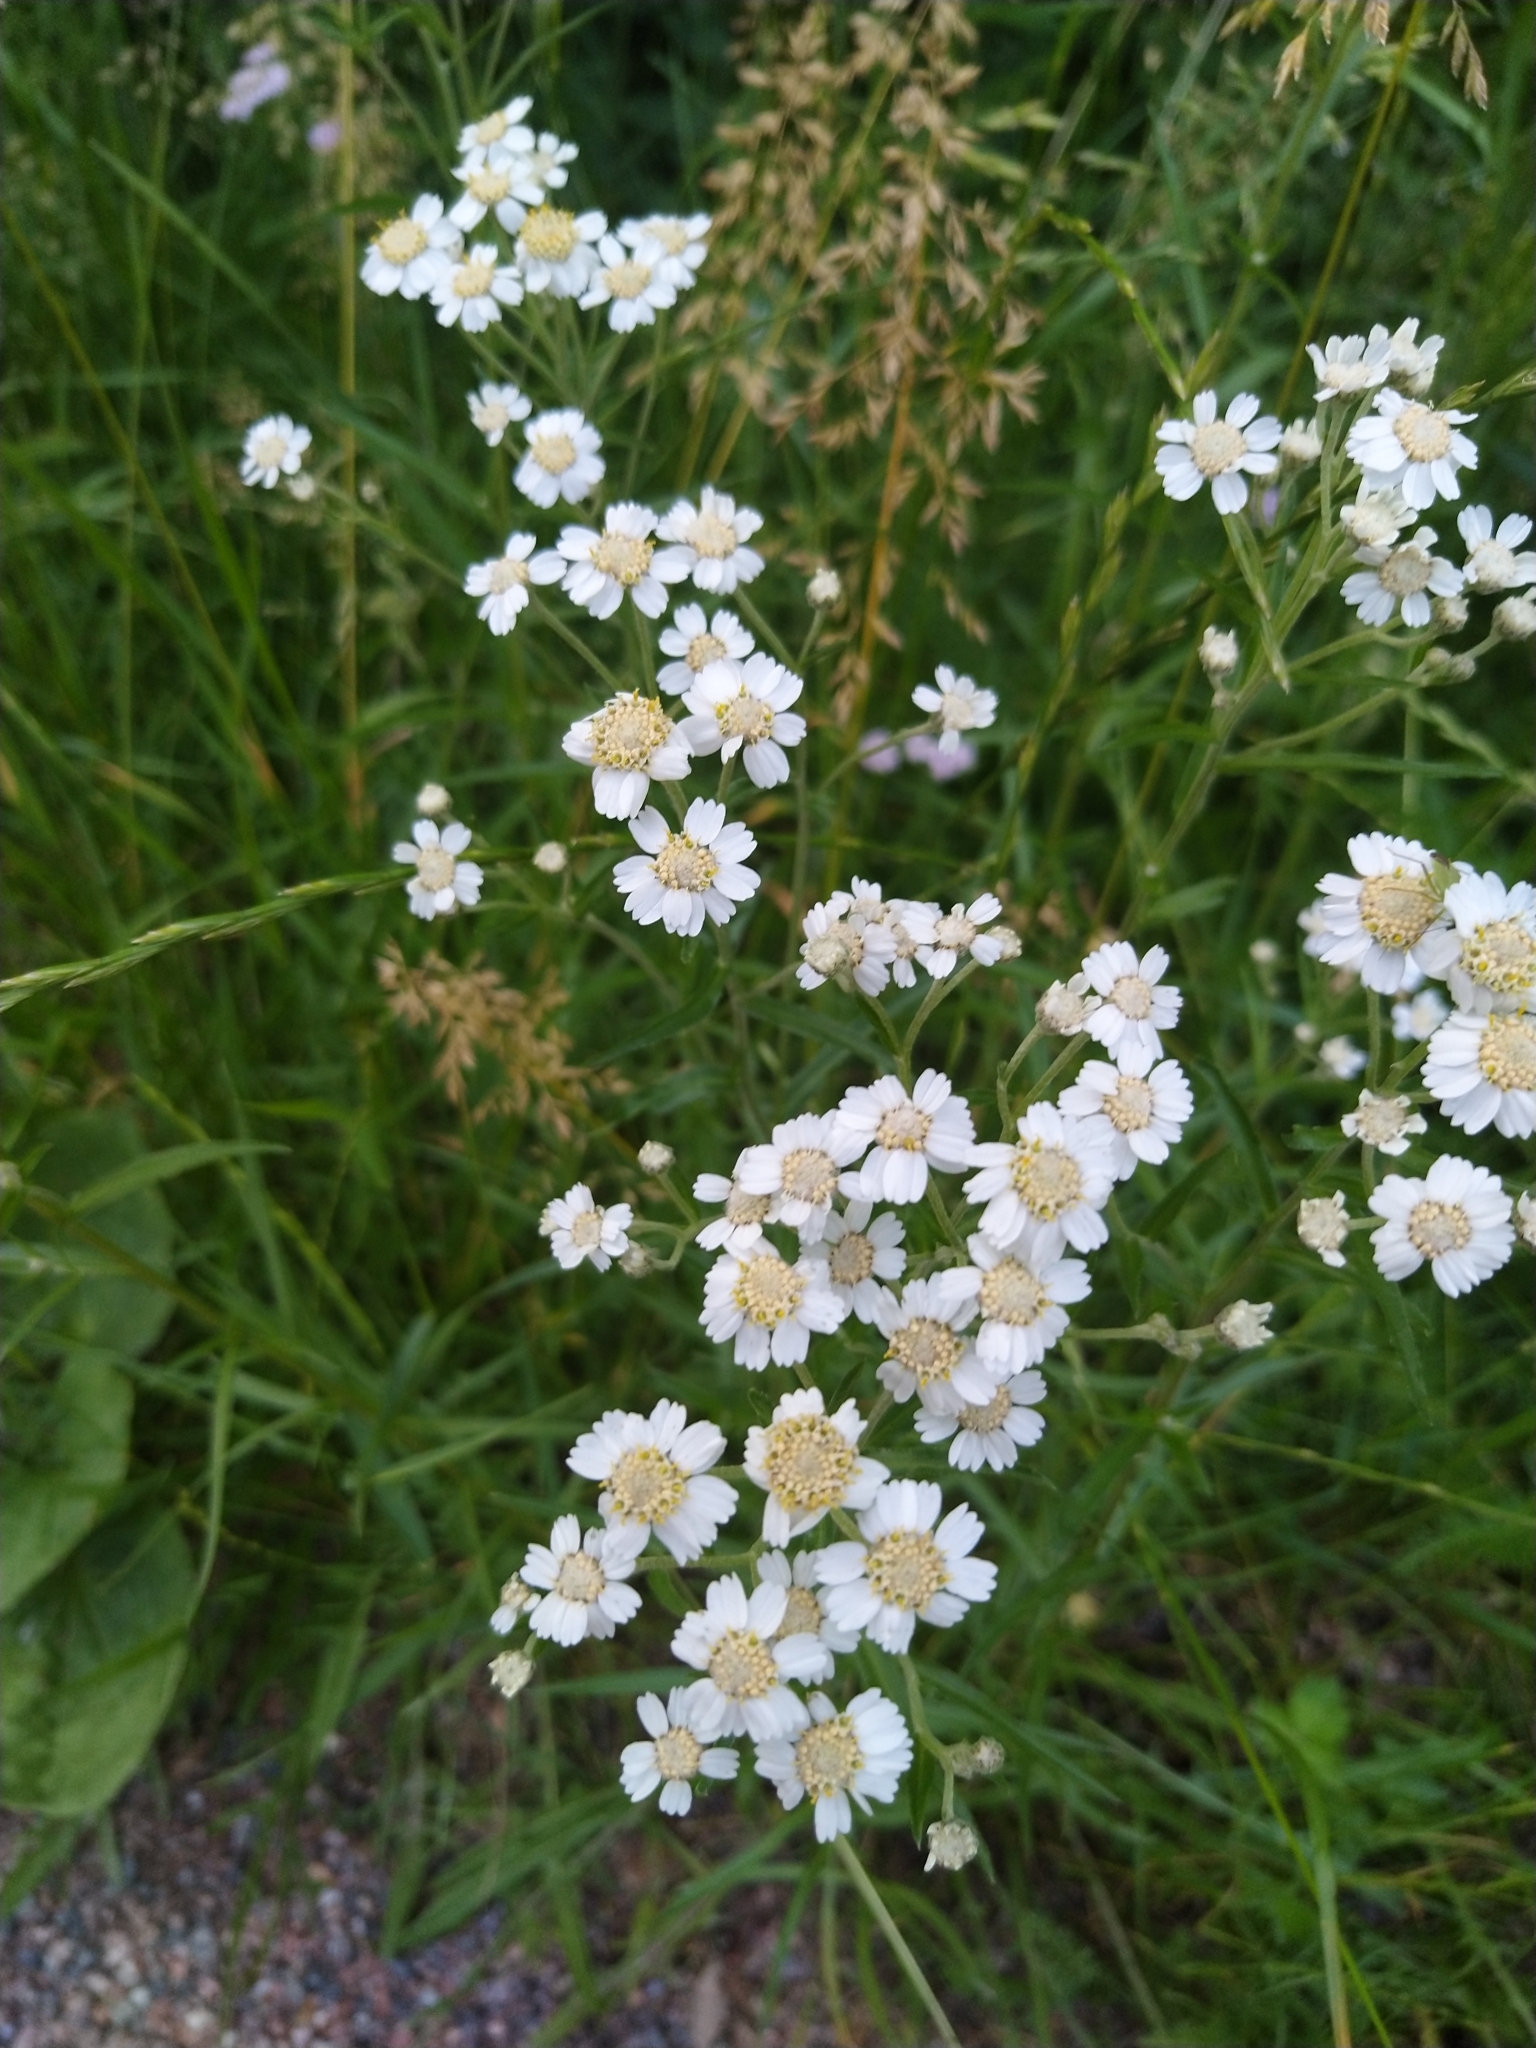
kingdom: Plantae
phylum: Tracheophyta
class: Magnoliopsida
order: Asterales
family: Asteraceae
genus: Achillea
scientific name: Achillea ptarmica
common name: Sneezeweed
